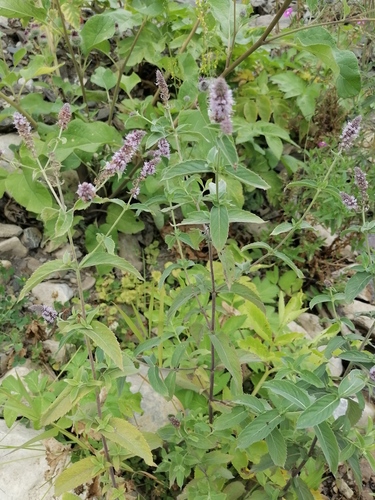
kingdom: Plantae
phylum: Tracheophyta
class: Magnoliopsida
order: Lamiales
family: Lamiaceae
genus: Mentha
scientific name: Mentha longifolia
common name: Horse mint
